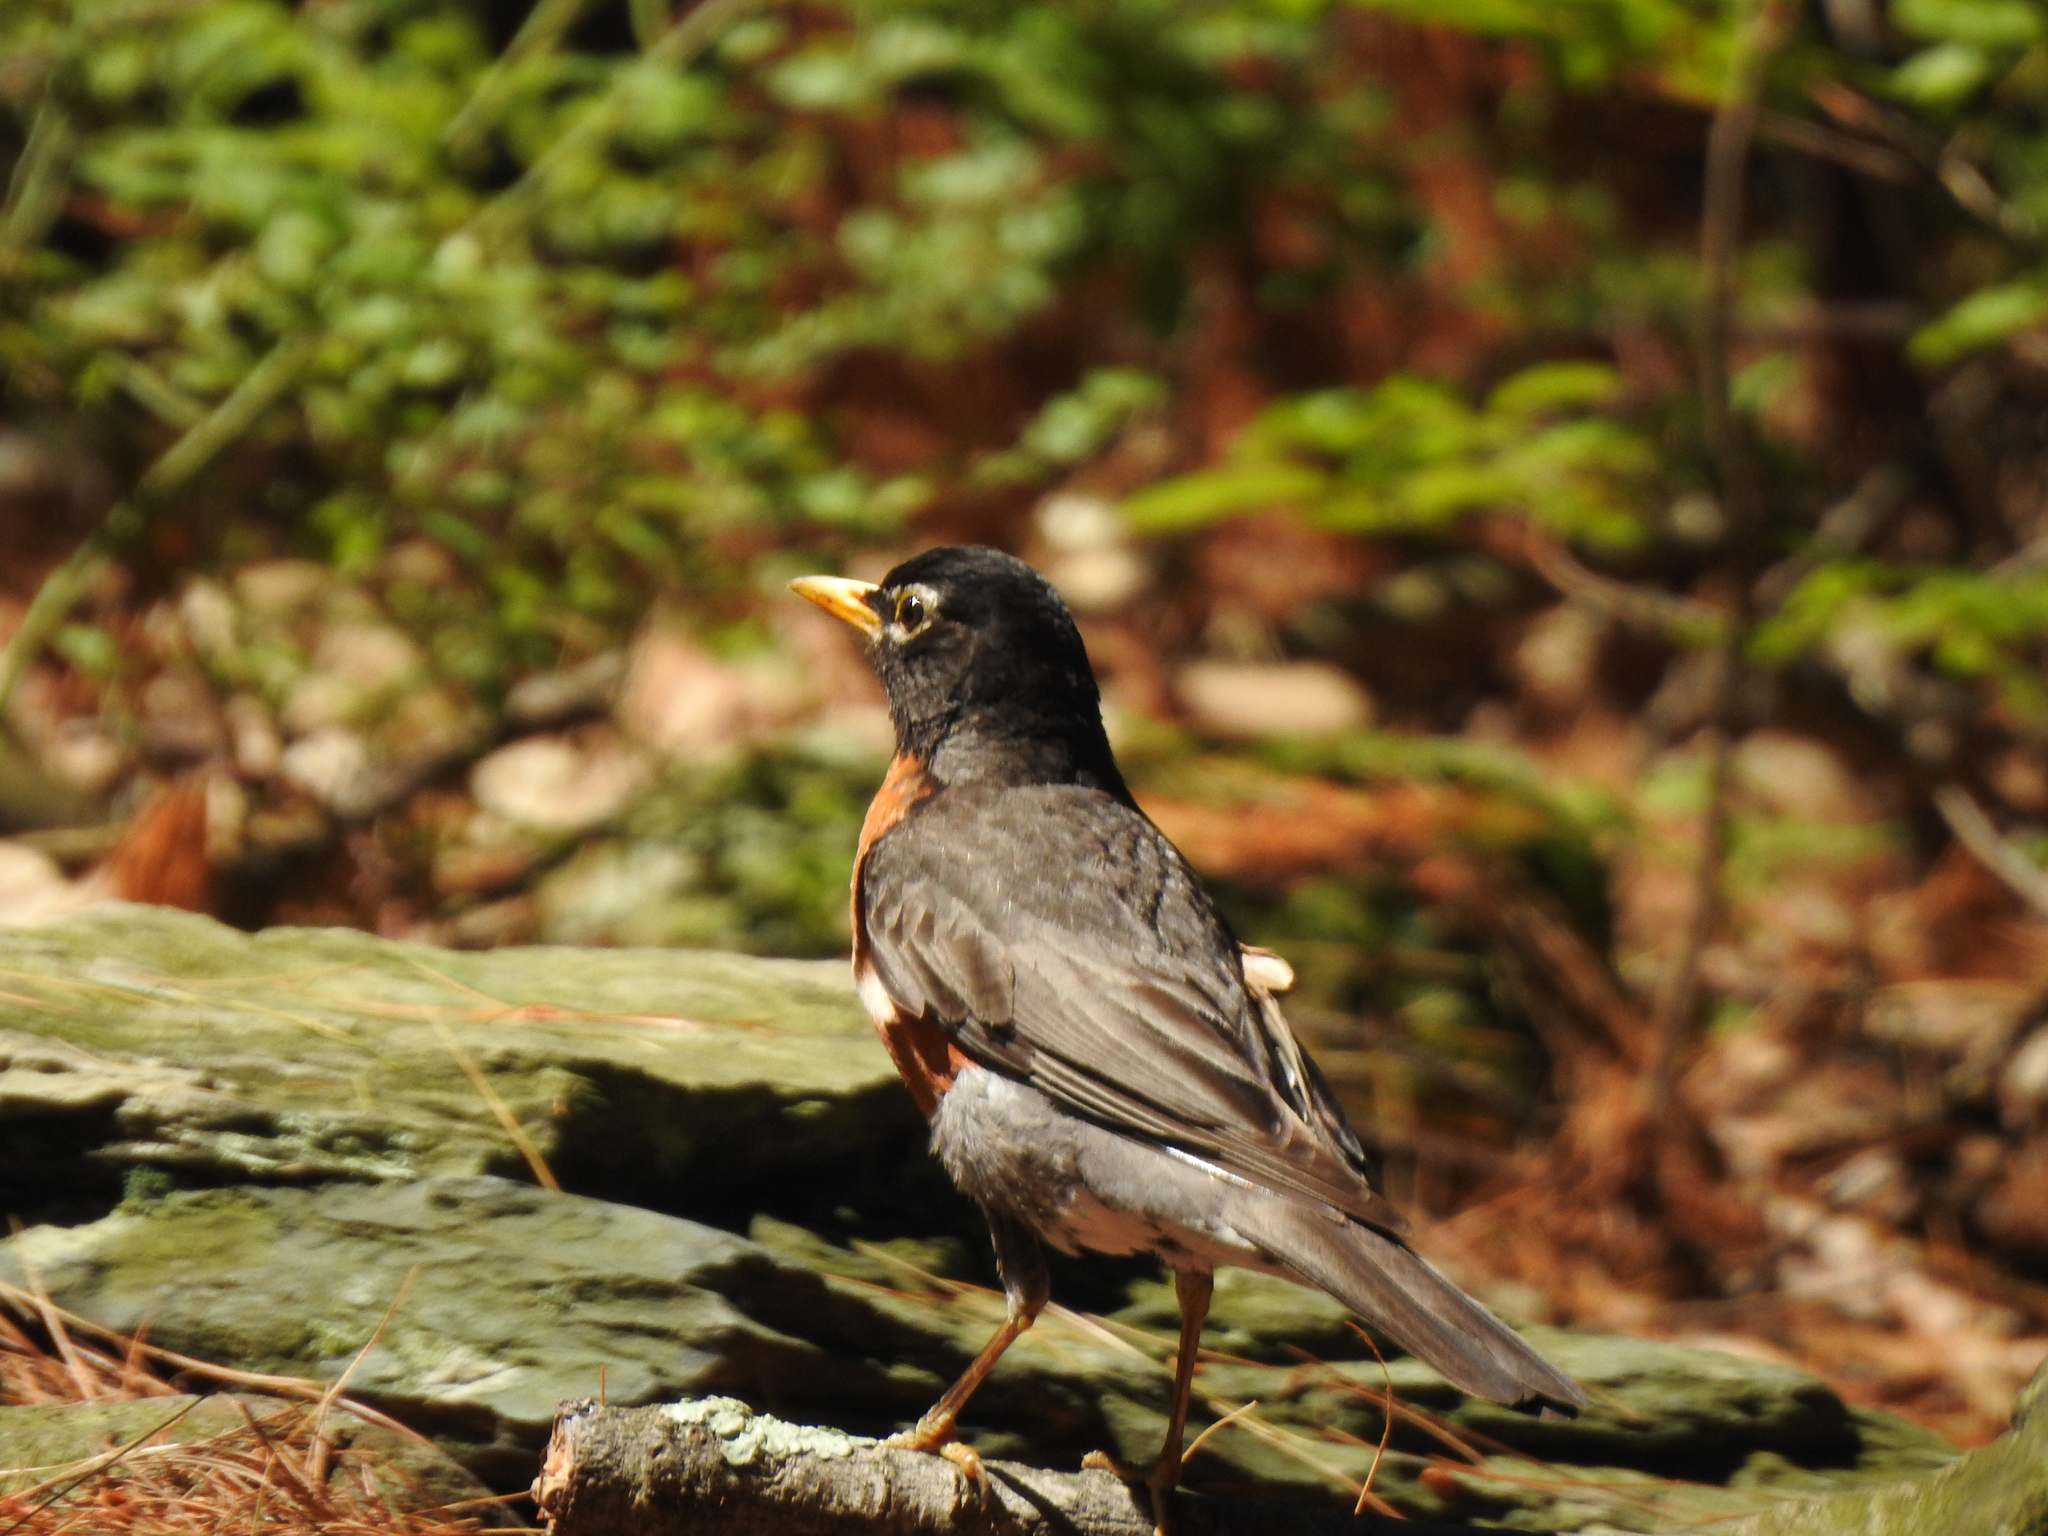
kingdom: Animalia
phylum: Chordata
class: Aves
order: Passeriformes
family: Turdidae
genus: Turdus
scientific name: Turdus migratorius
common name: American robin
